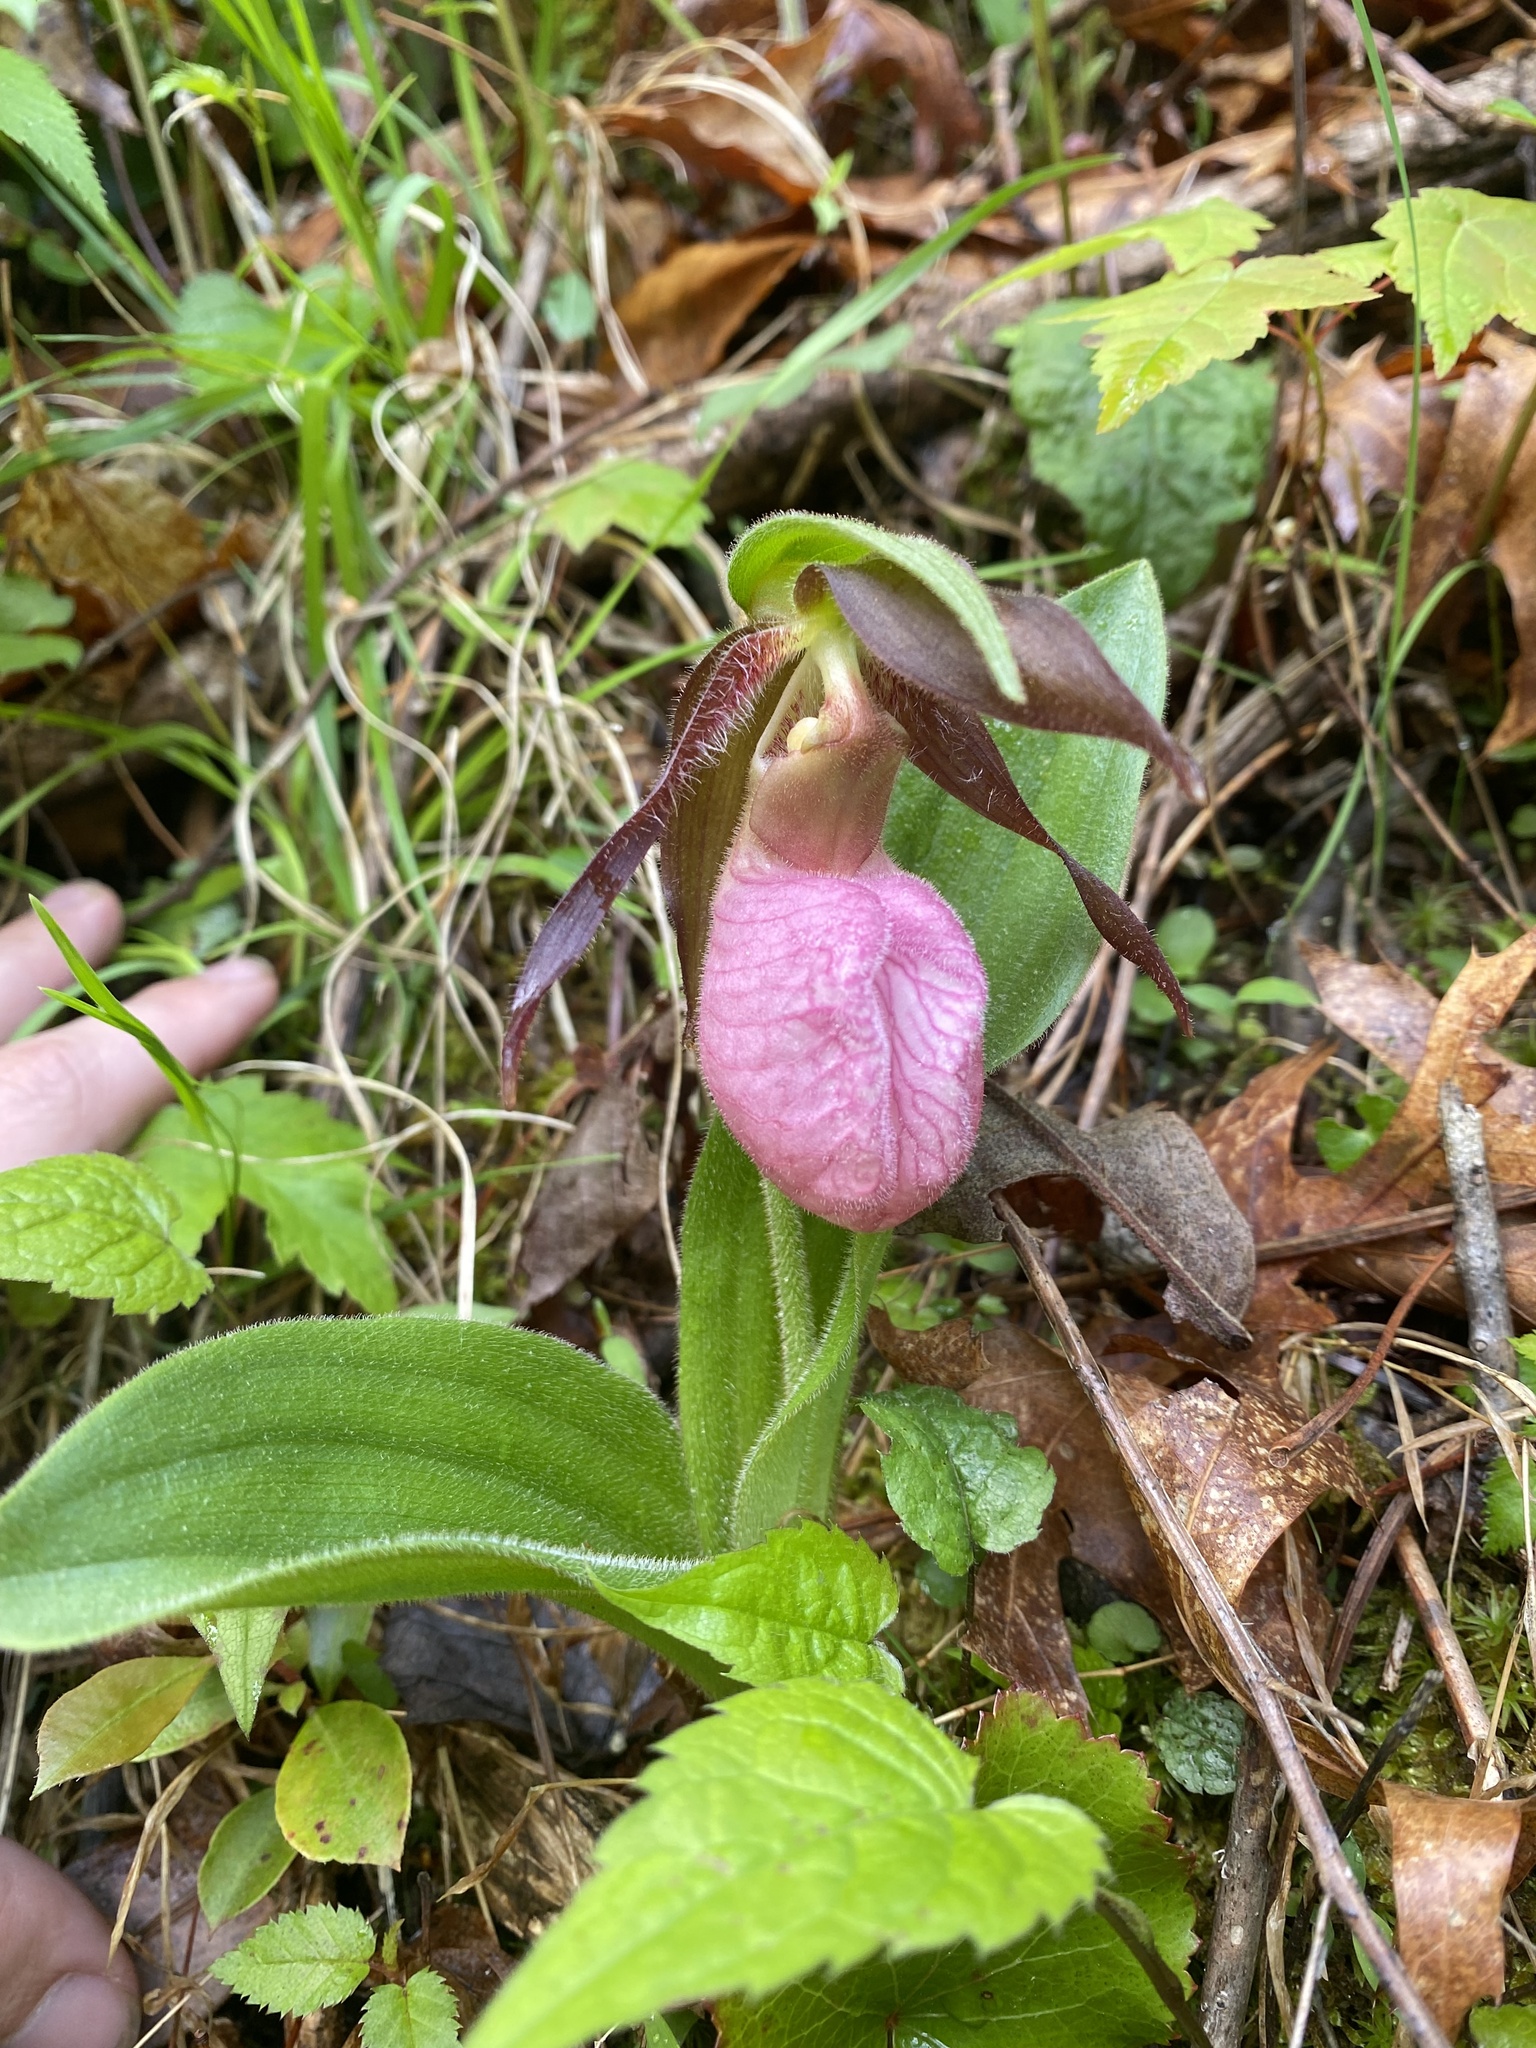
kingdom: Plantae
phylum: Tracheophyta
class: Liliopsida
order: Asparagales
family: Orchidaceae
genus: Cypripedium
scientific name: Cypripedium acaule
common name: Pink lady's-slipper
